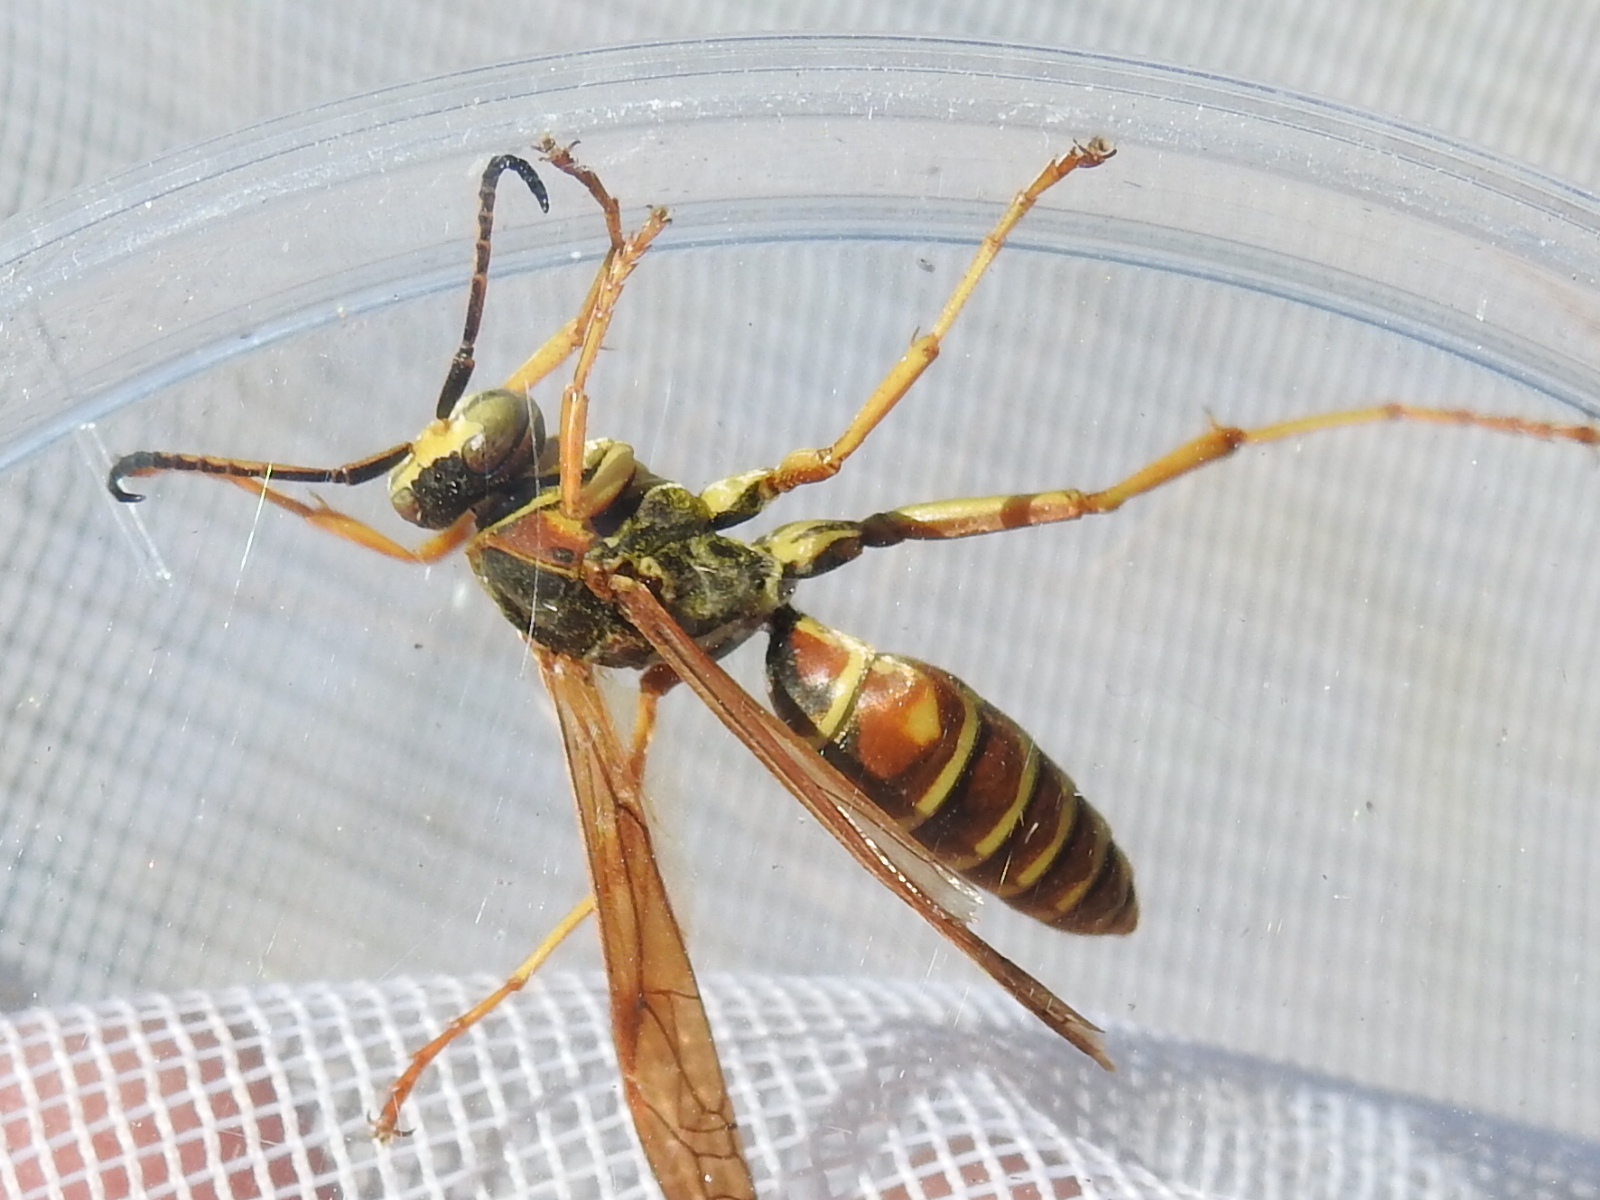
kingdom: Animalia
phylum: Arthropoda
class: Insecta
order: Hymenoptera
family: Eumenidae
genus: Polistes
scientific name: Polistes fuscatus
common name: Dark paper wasp
